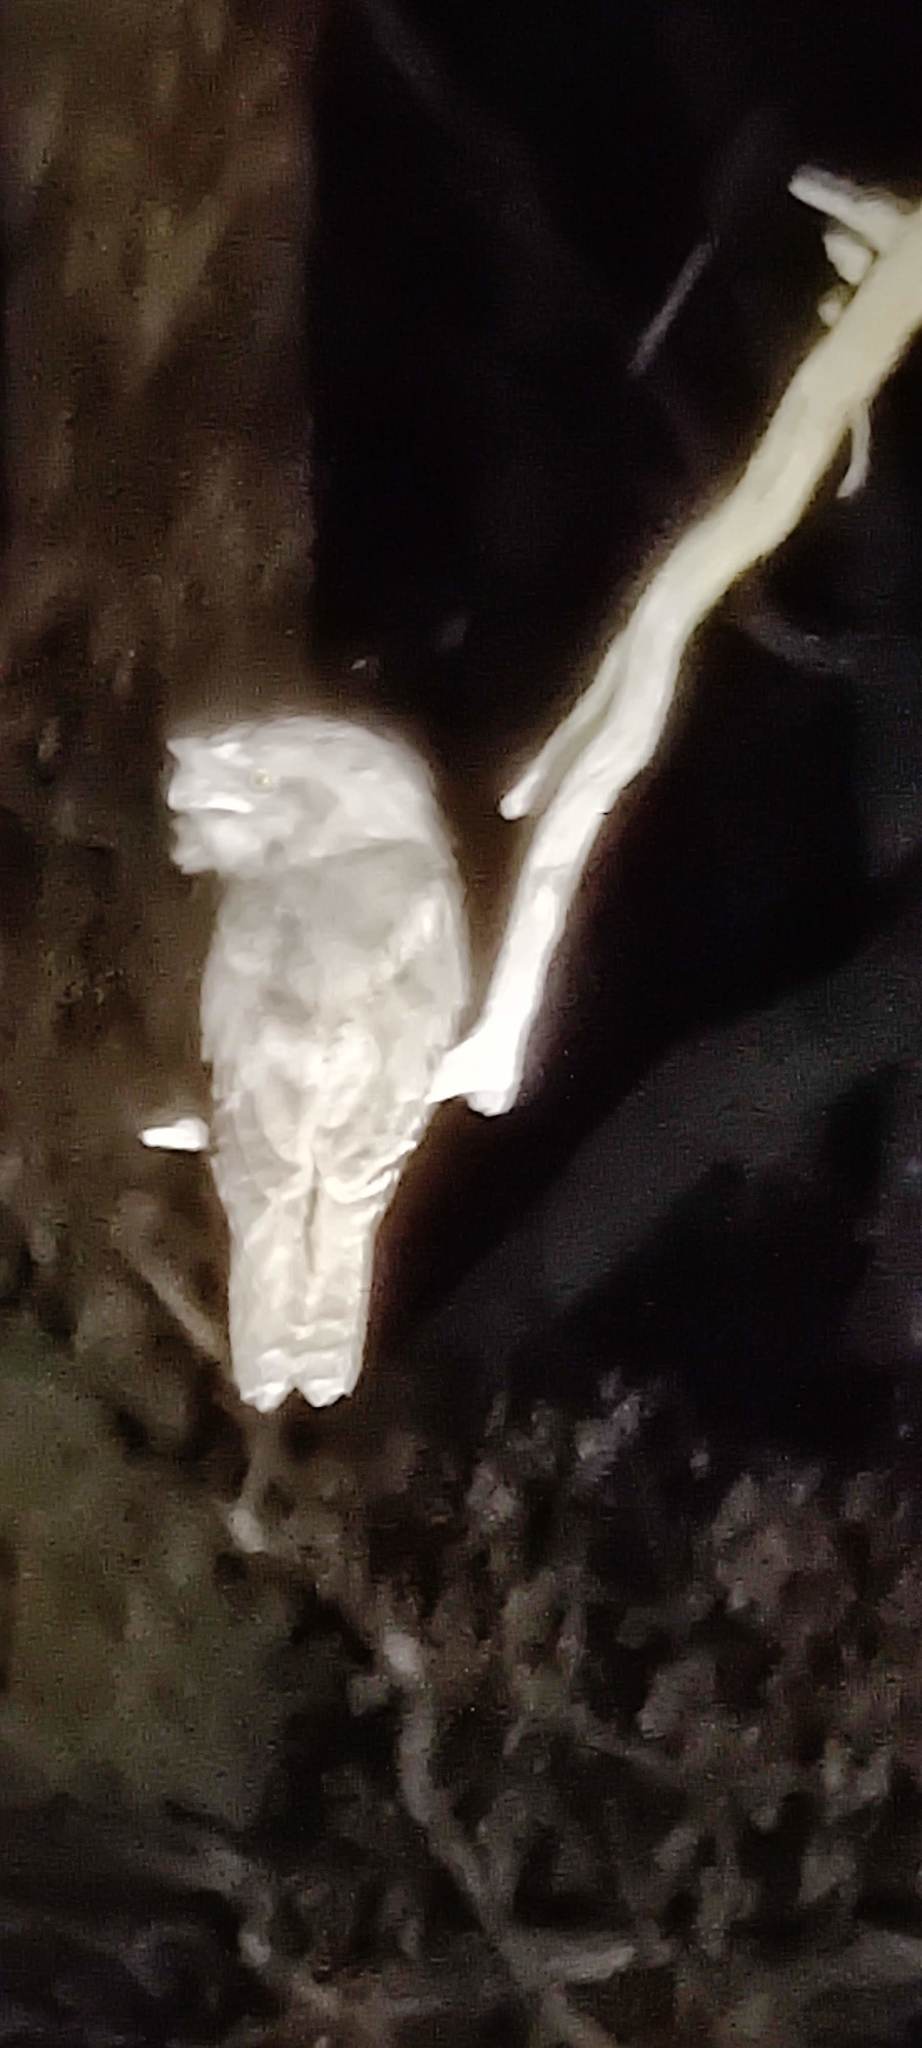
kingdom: Animalia
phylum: Chordata
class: Aves
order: Caprimulgiformes
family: Podargidae
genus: Podargus
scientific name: Podargus strigoides
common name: Tawny frogmouth
